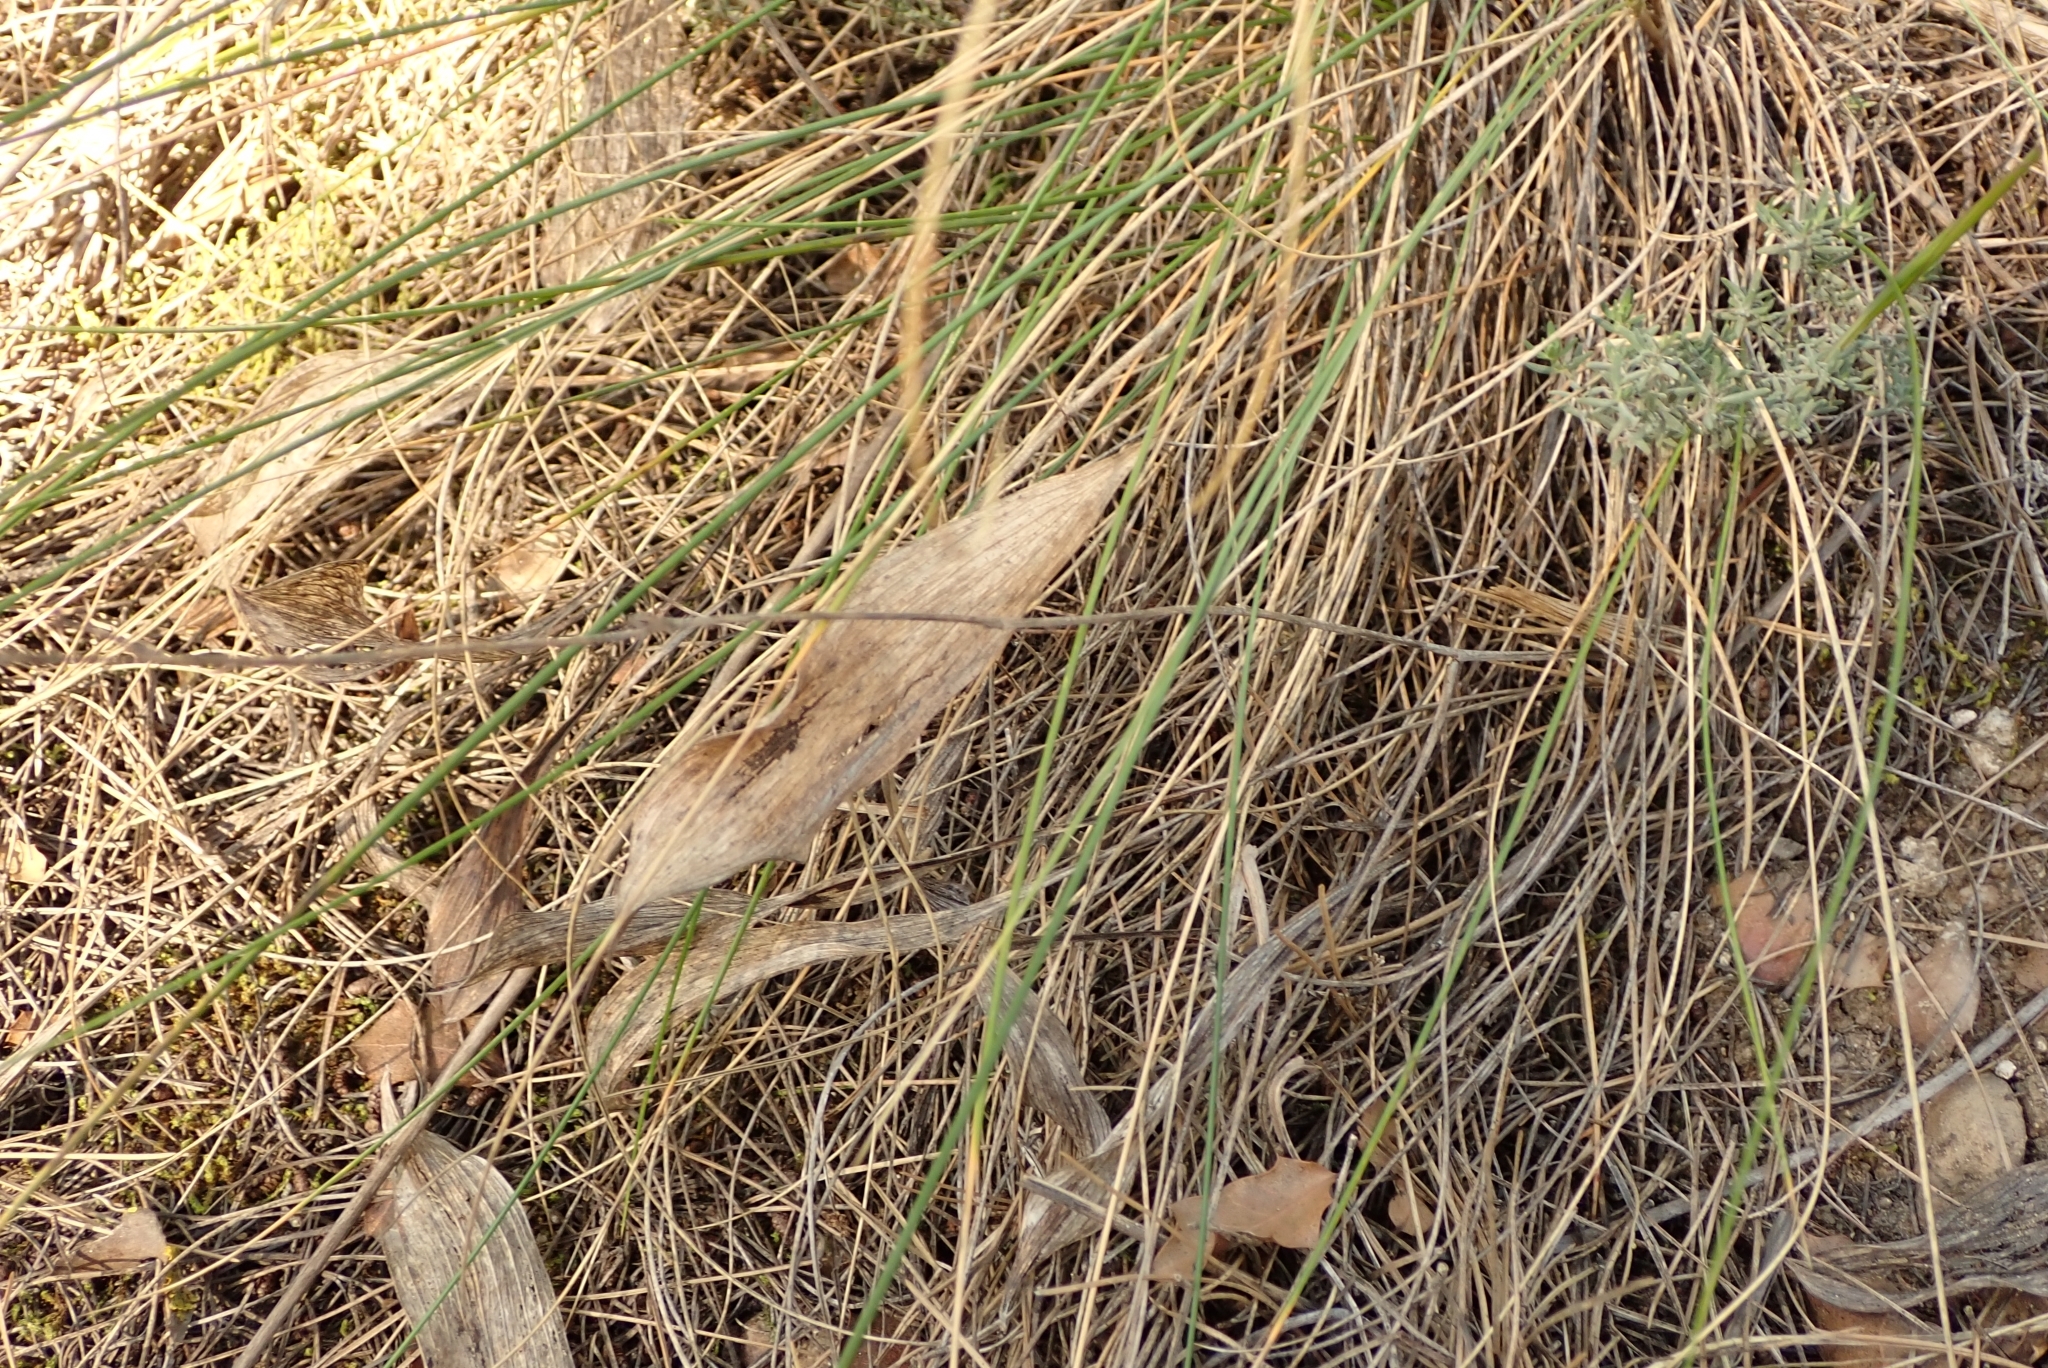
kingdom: Plantae
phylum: Tracheophyta
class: Magnoliopsida
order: Apiales
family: Apiaceae
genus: Bupleurum
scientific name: Bupleurum rigidum
